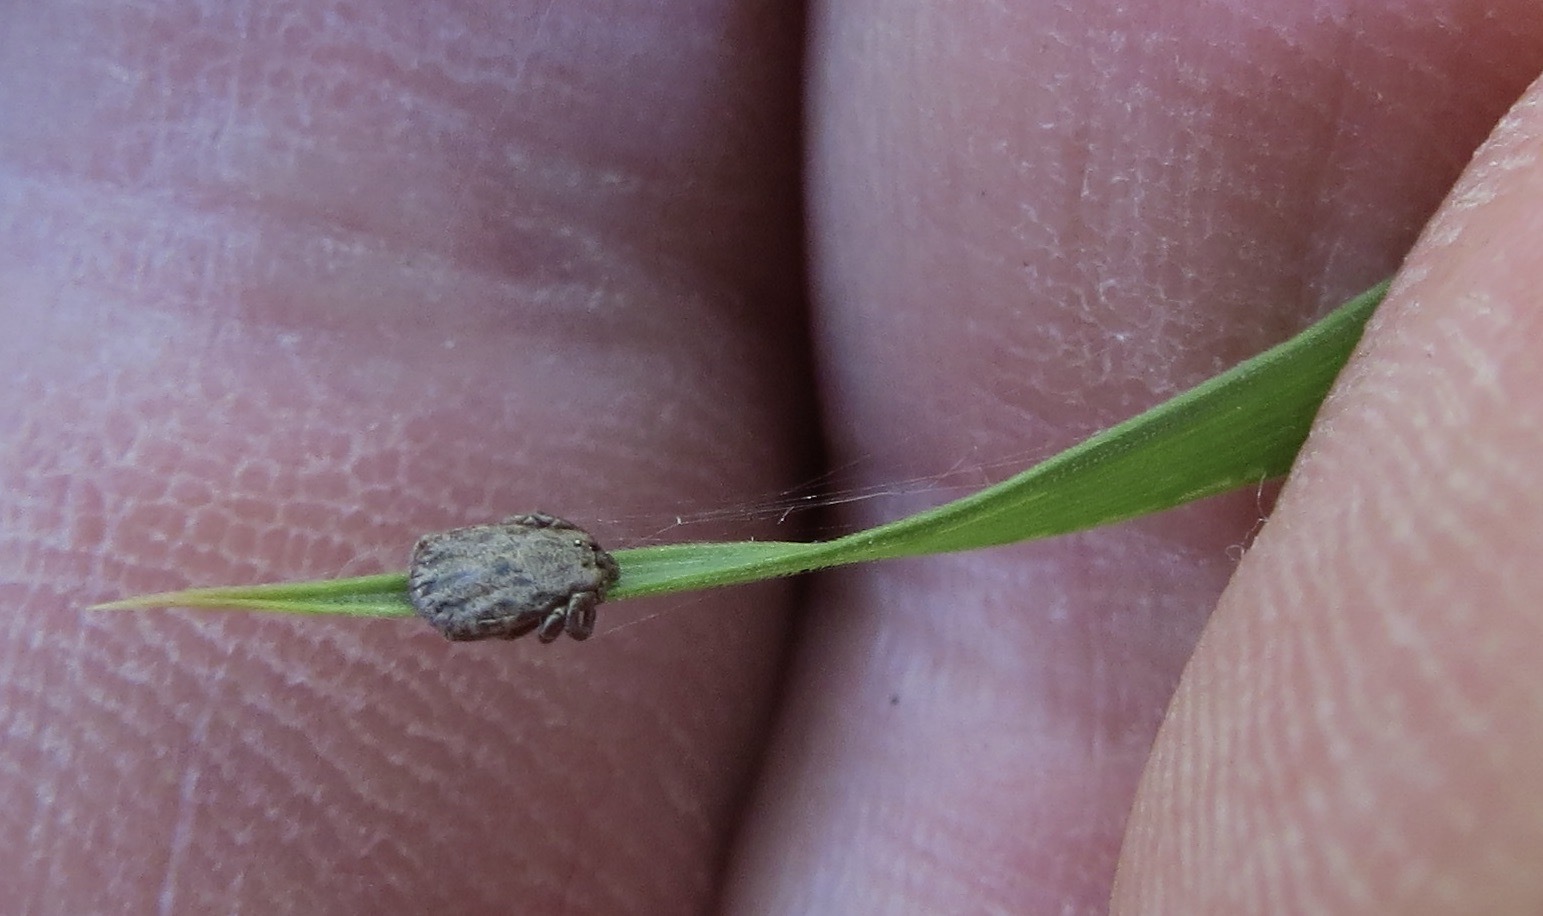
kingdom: Animalia
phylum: Arthropoda
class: Arachnida
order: Ixodida
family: Ixodidae
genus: Dermacentor
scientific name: Dermacentor occidentalis
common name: Net tick
